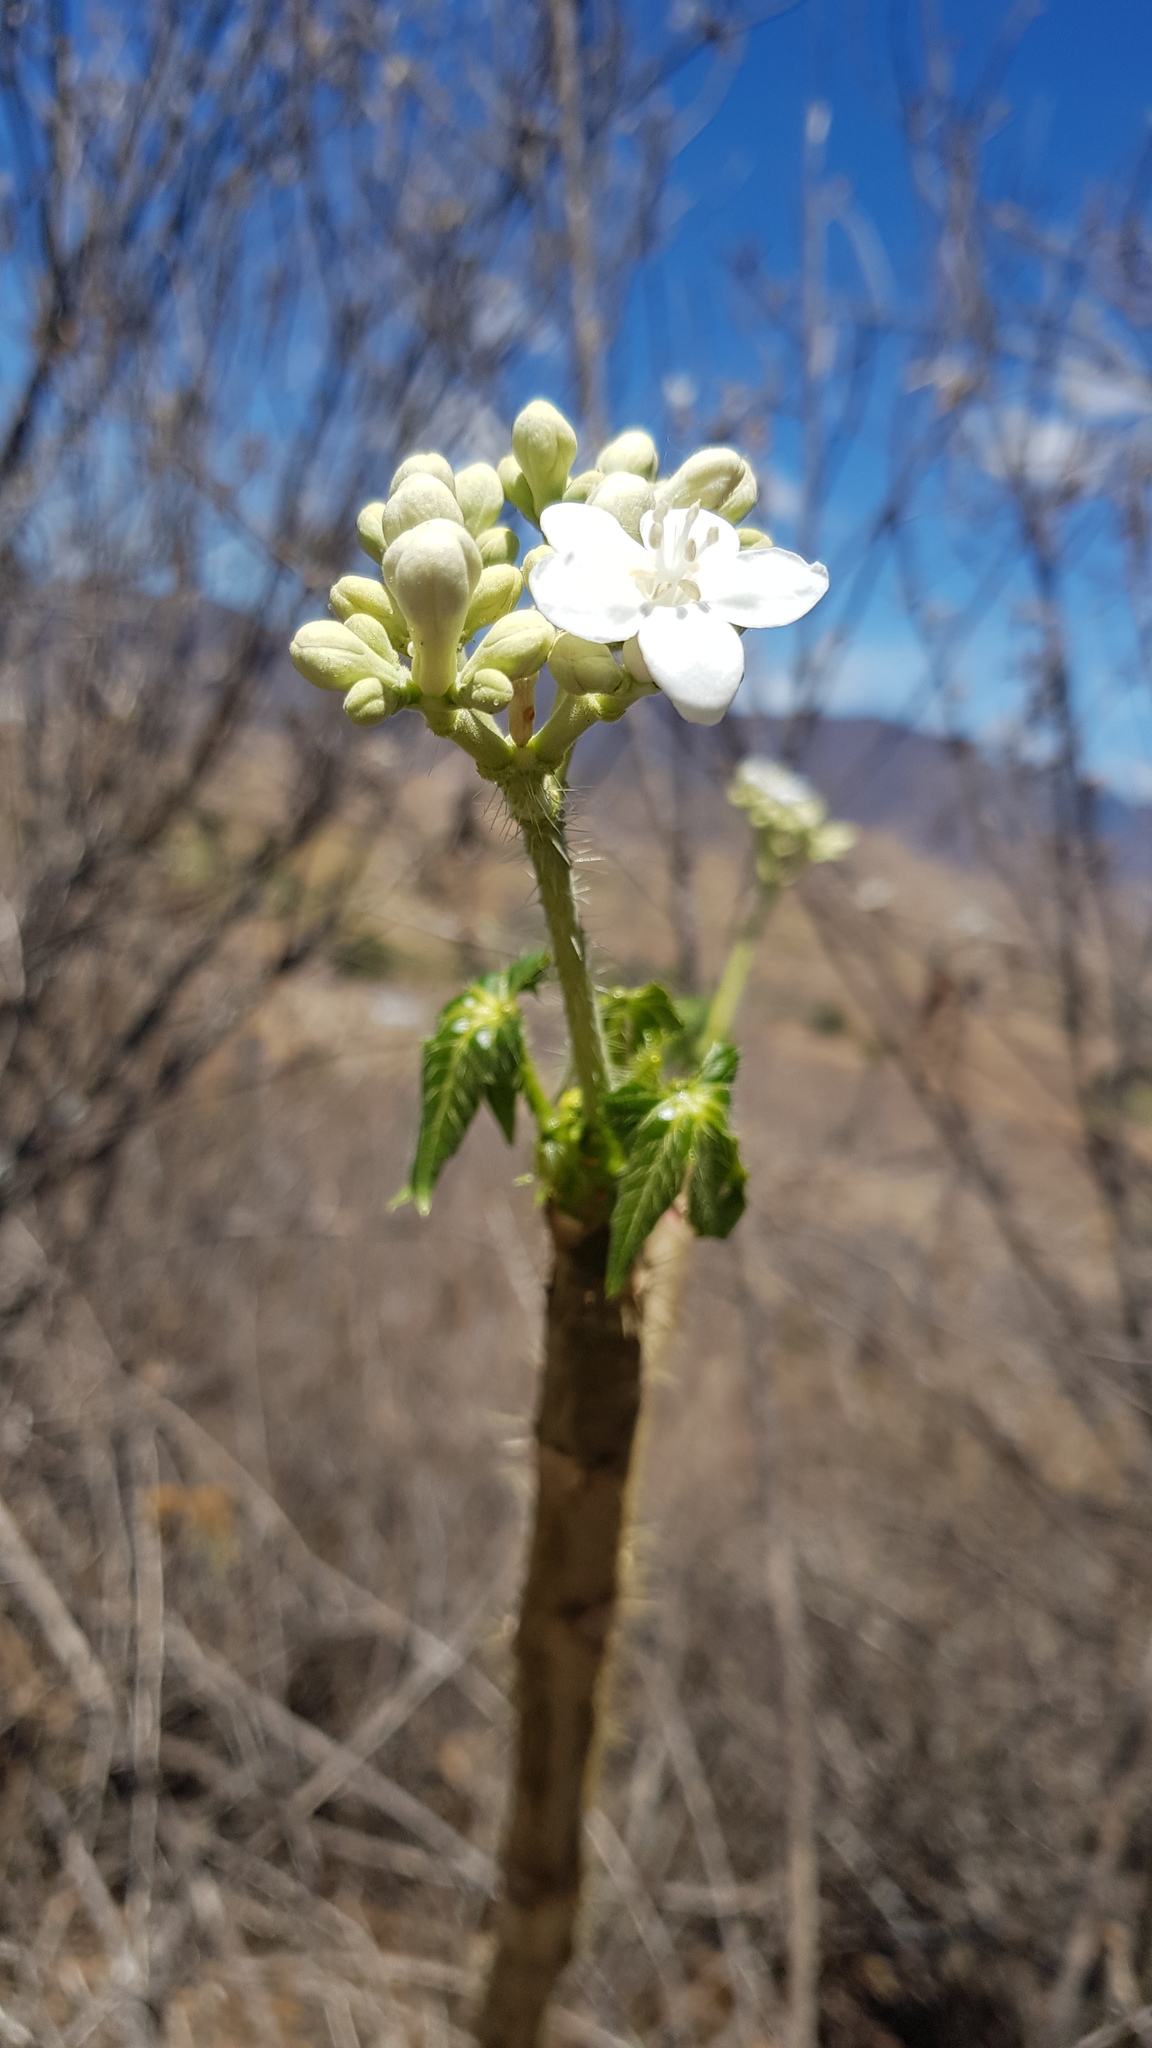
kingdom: Plantae
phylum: Tracheophyta
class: Magnoliopsida
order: Malpighiales
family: Euphorbiaceae
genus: Cnidoscolus
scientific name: Cnidoscolus multilobus
